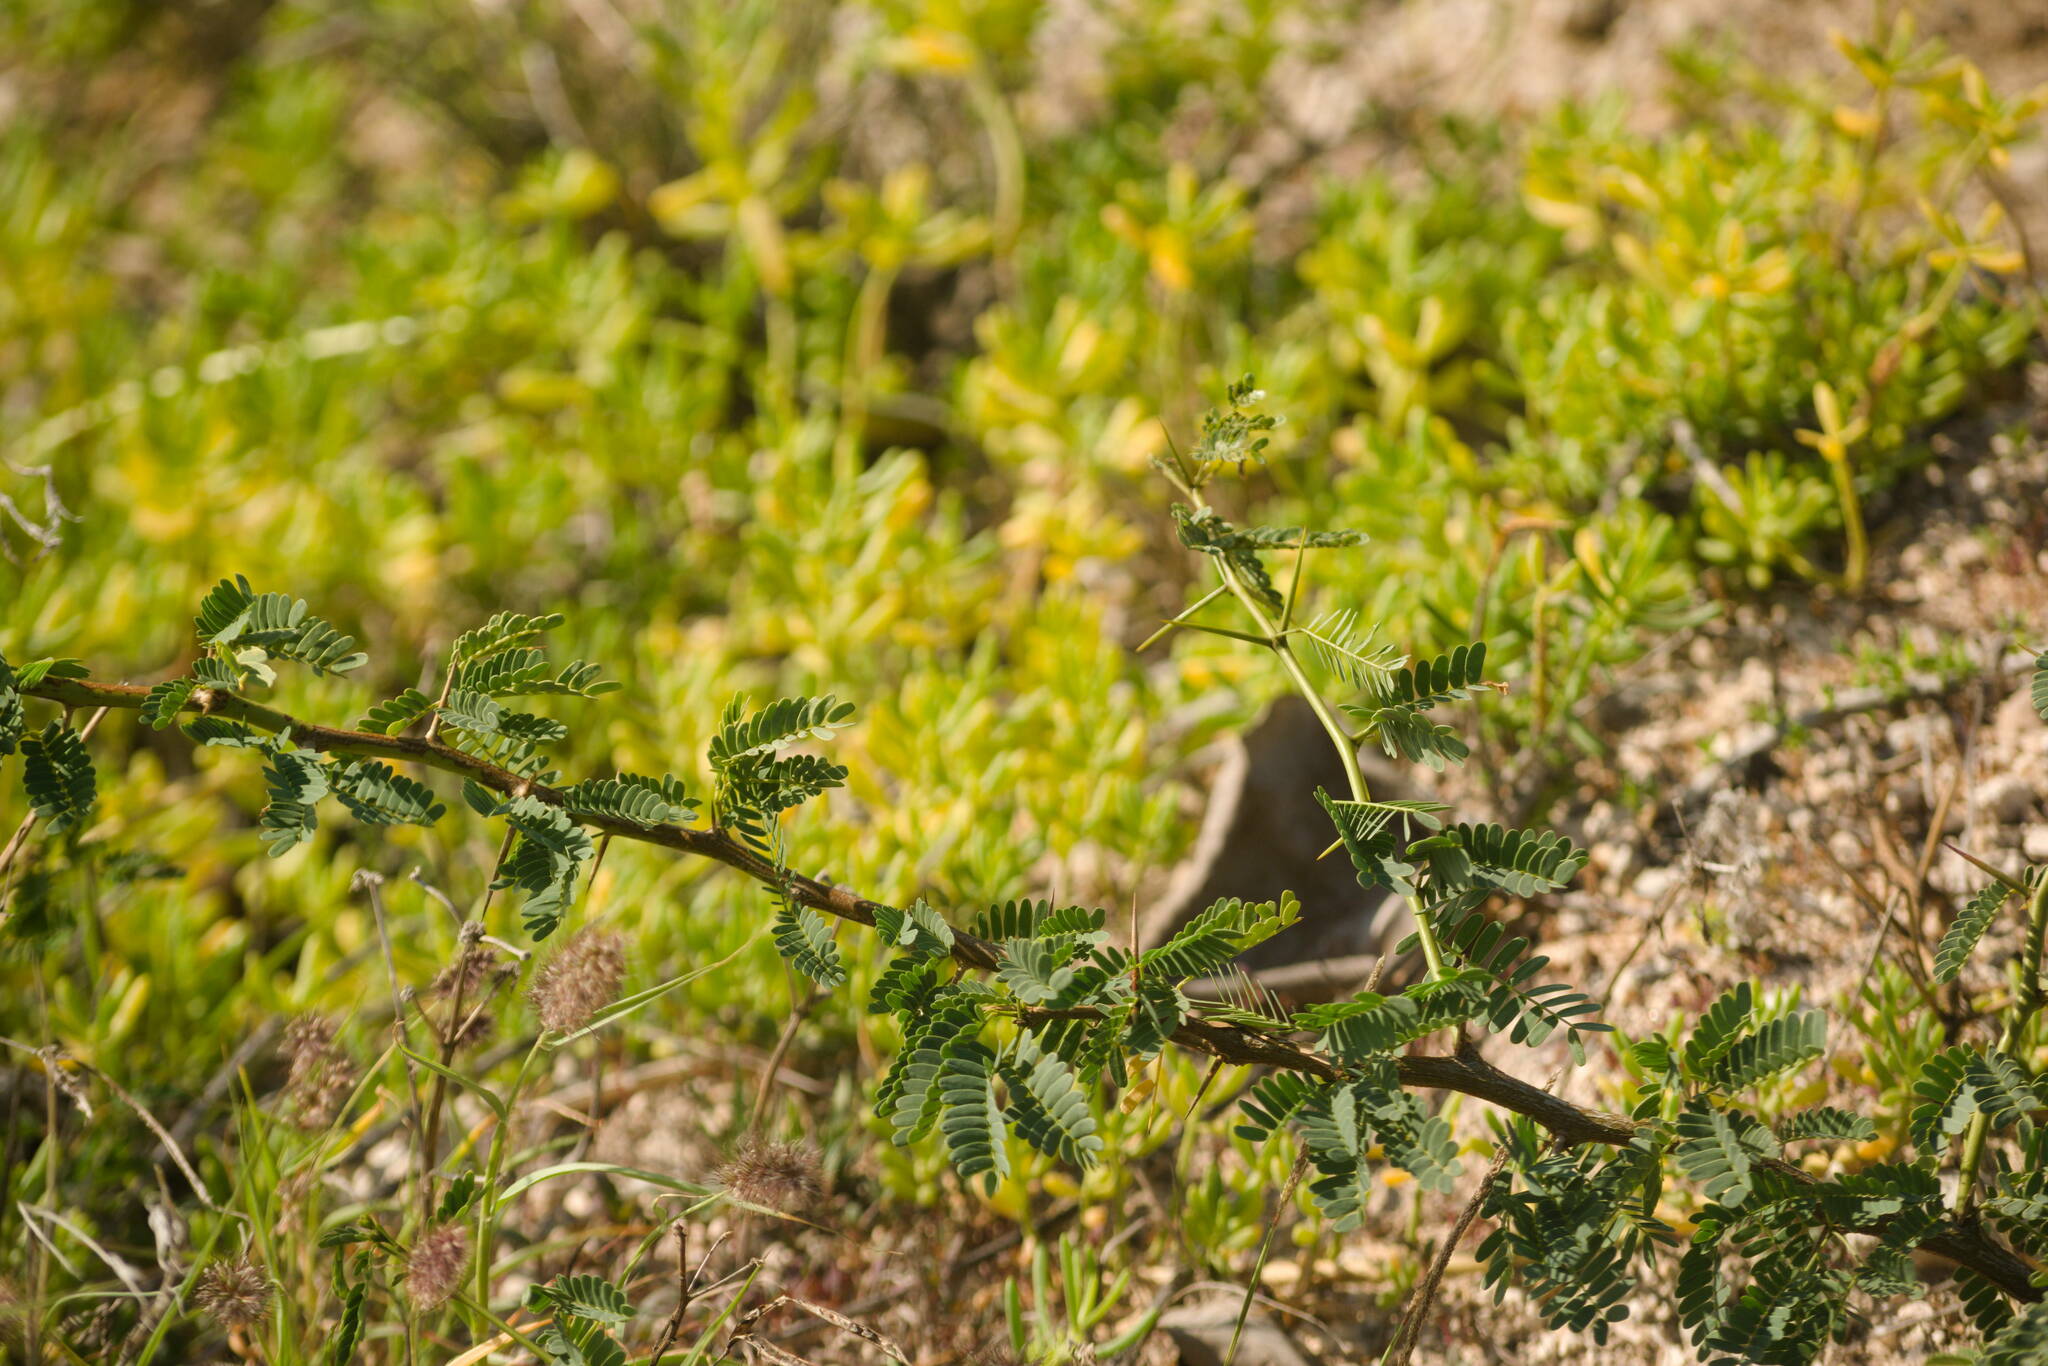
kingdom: Plantae
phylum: Tracheophyta
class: Magnoliopsida
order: Fabales
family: Fabaceae
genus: Prosopis
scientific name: Prosopis juliflora
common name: Mesquite
